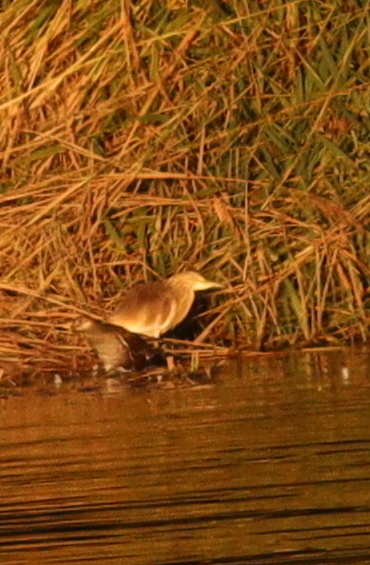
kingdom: Animalia
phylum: Chordata
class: Aves
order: Pelecaniformes
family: Ardeidae
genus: Ardeola
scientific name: Ardeola ralloides
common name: Squacco heron
